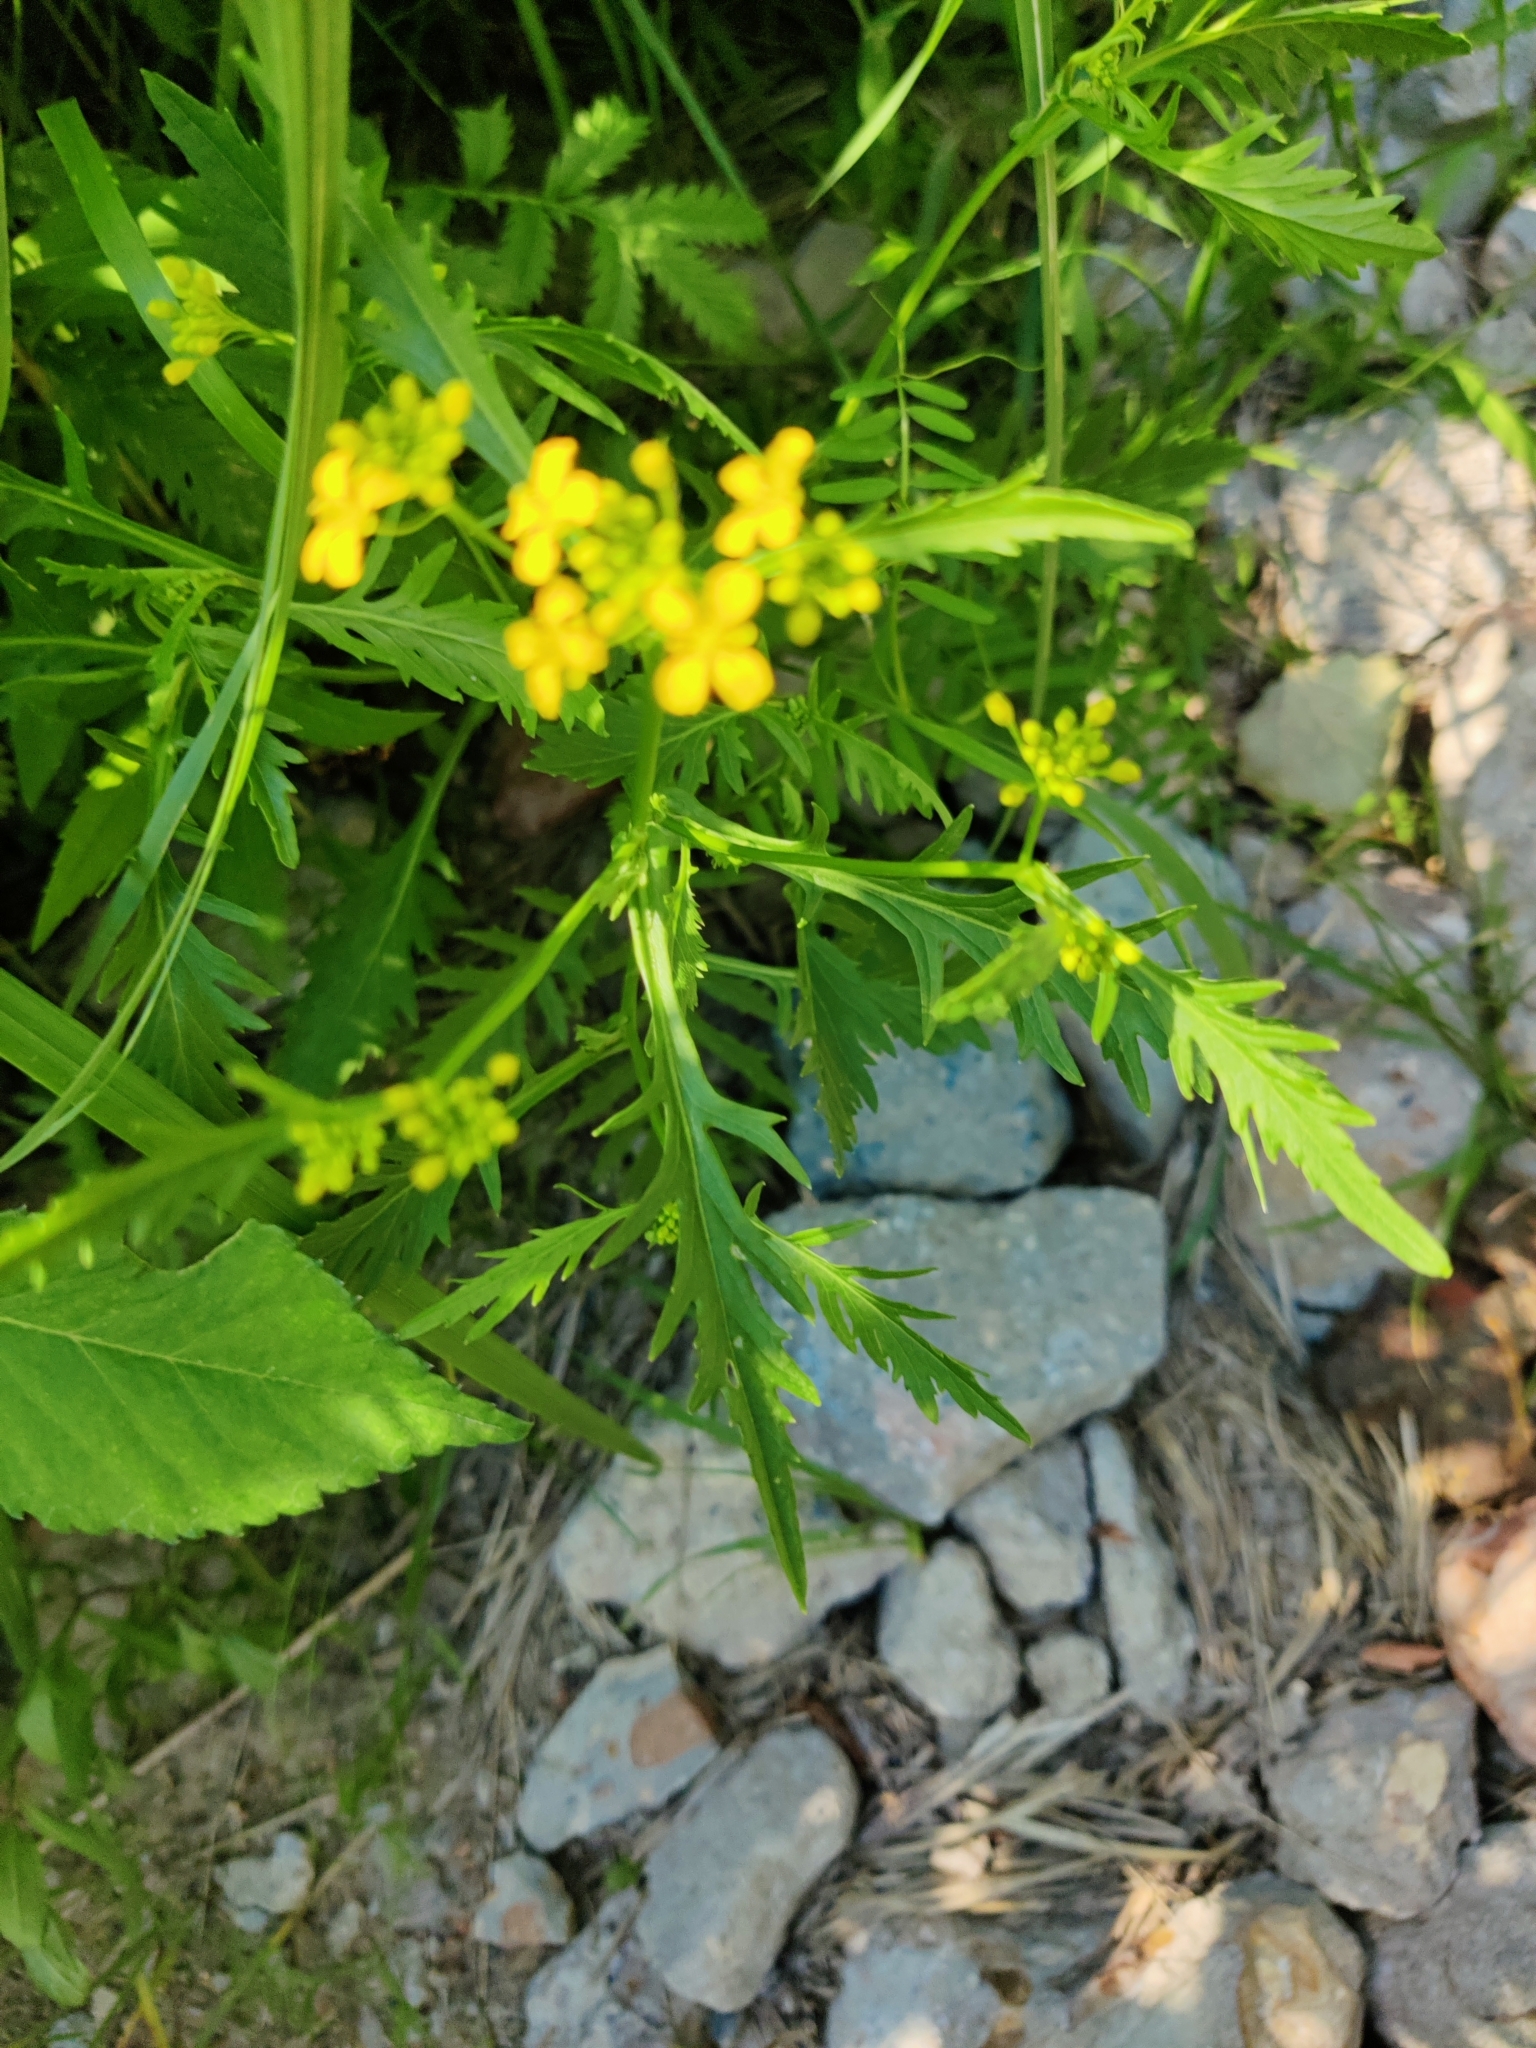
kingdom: Plantae
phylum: Tracheophyta
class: Magnoliopsida
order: Brassicales
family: Brassicaceae
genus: Rorippa
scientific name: Rorippa sylvestris
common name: Creeping yellowcress
